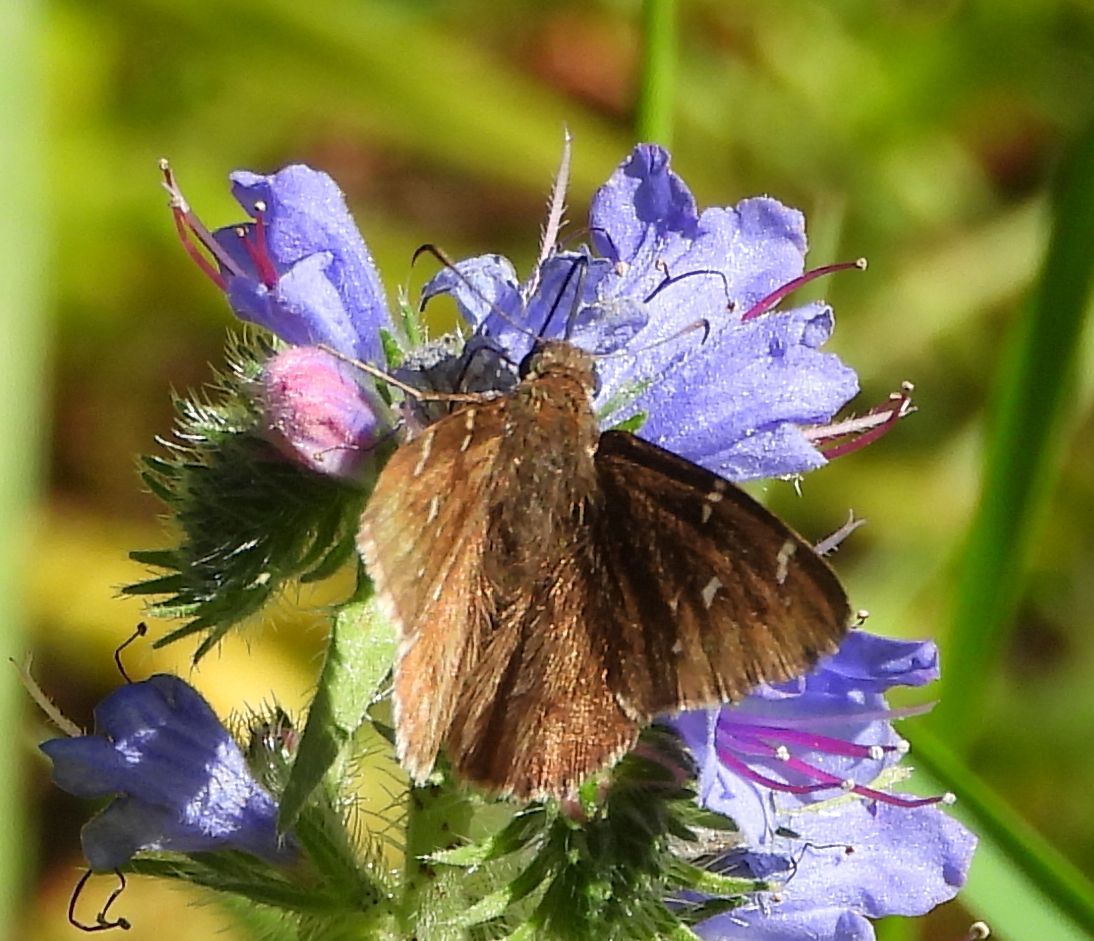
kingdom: Animalia
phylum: Arthropoda
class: Insecta
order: Lepidoptera
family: Hesperiidae
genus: Thorybes
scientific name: Thorybes pylades
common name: Northern cloudywing
